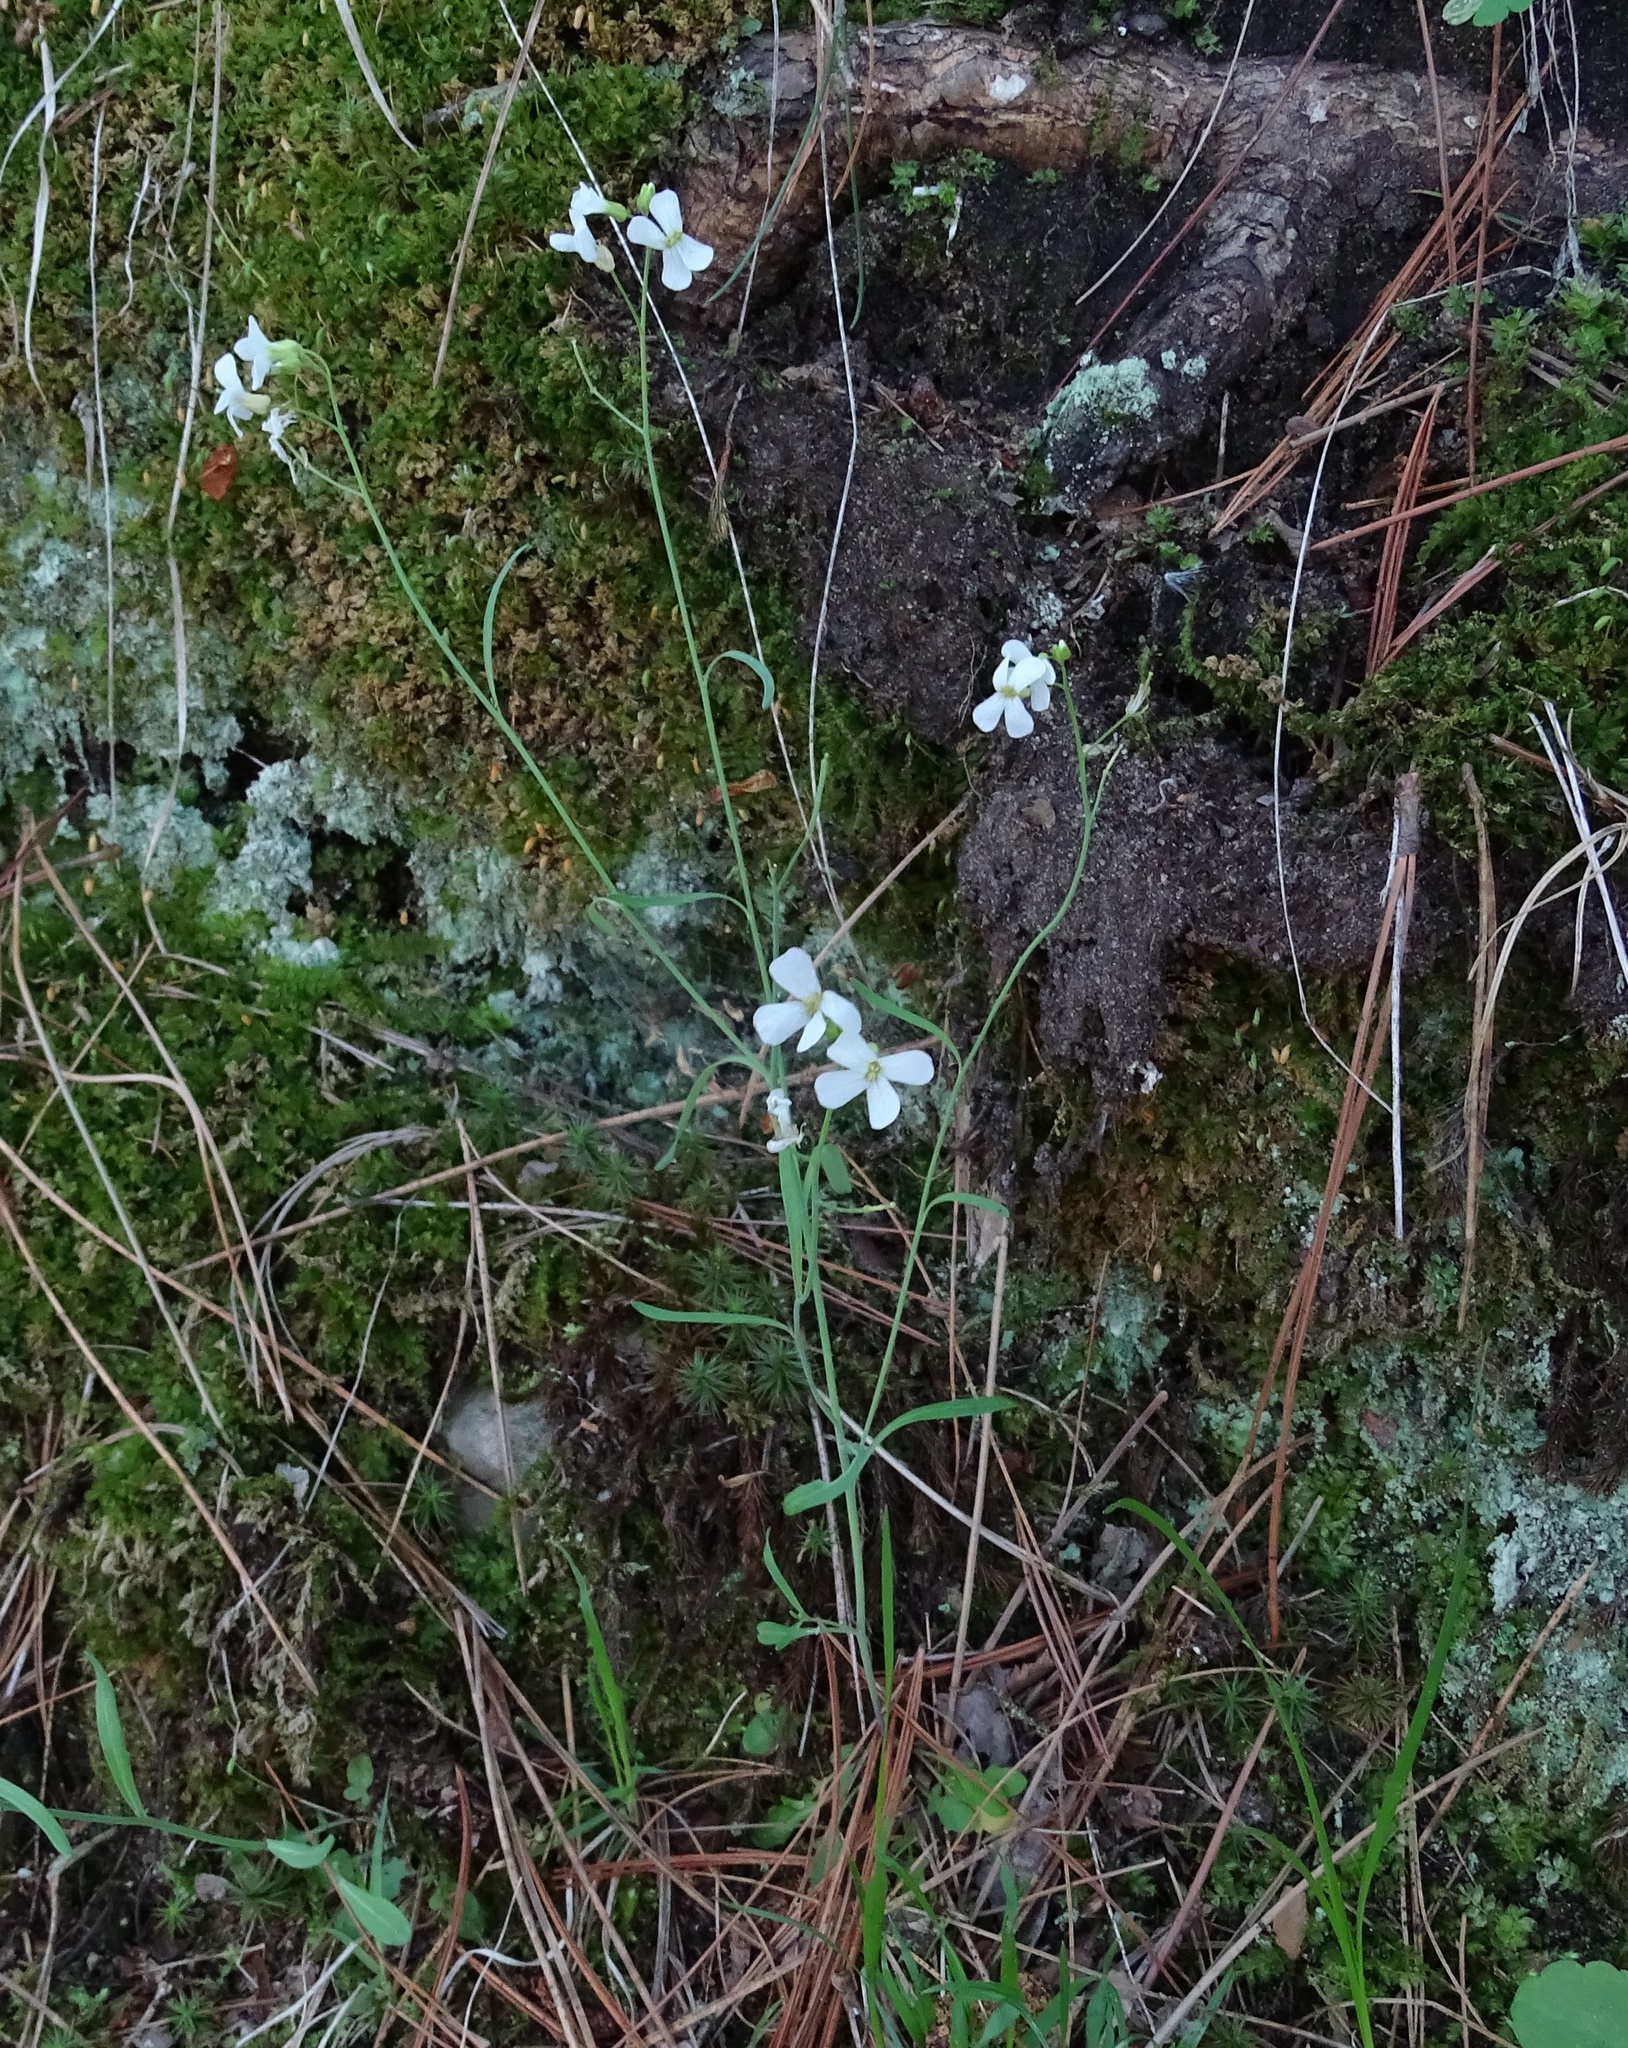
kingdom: Plantae
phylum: Tracheophyta
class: Magnoliopsida
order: Brassicales
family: Brassicaceae
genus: Arabidopsis
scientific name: Arabidopsis lyrata
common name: Lyrate rockcress
